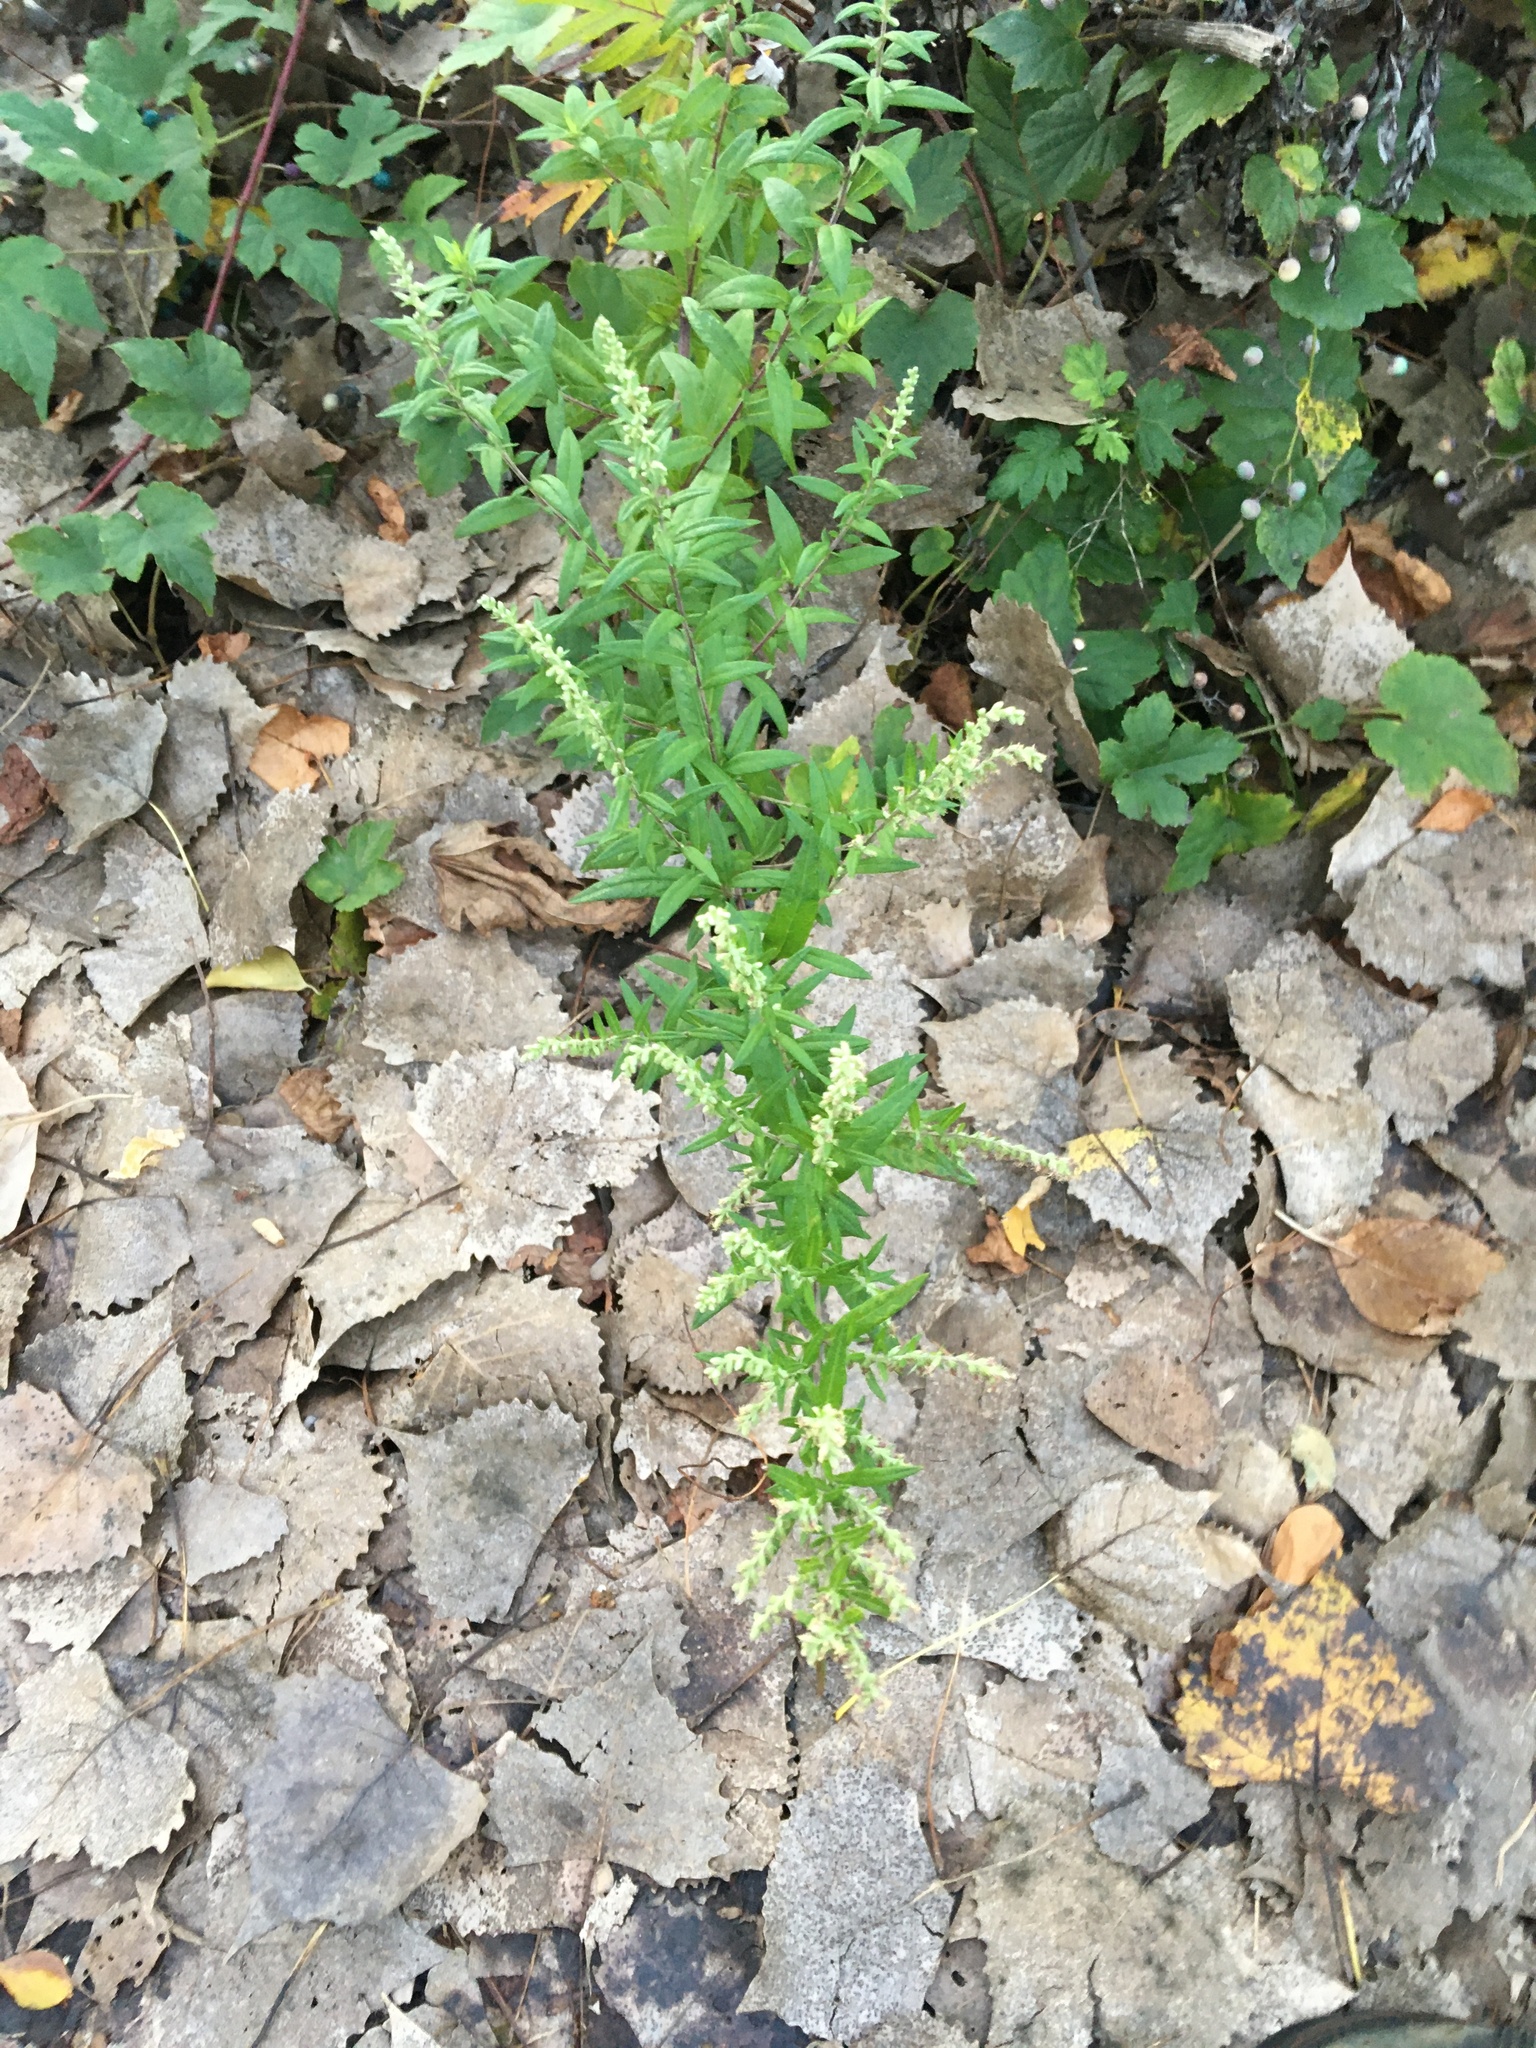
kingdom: Plantae
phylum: Tracheophyta
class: Magnoliopsida
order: Asterales
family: Asteraceae
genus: Artemisia
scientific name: Artemisia vulgaris
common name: Mugwort
